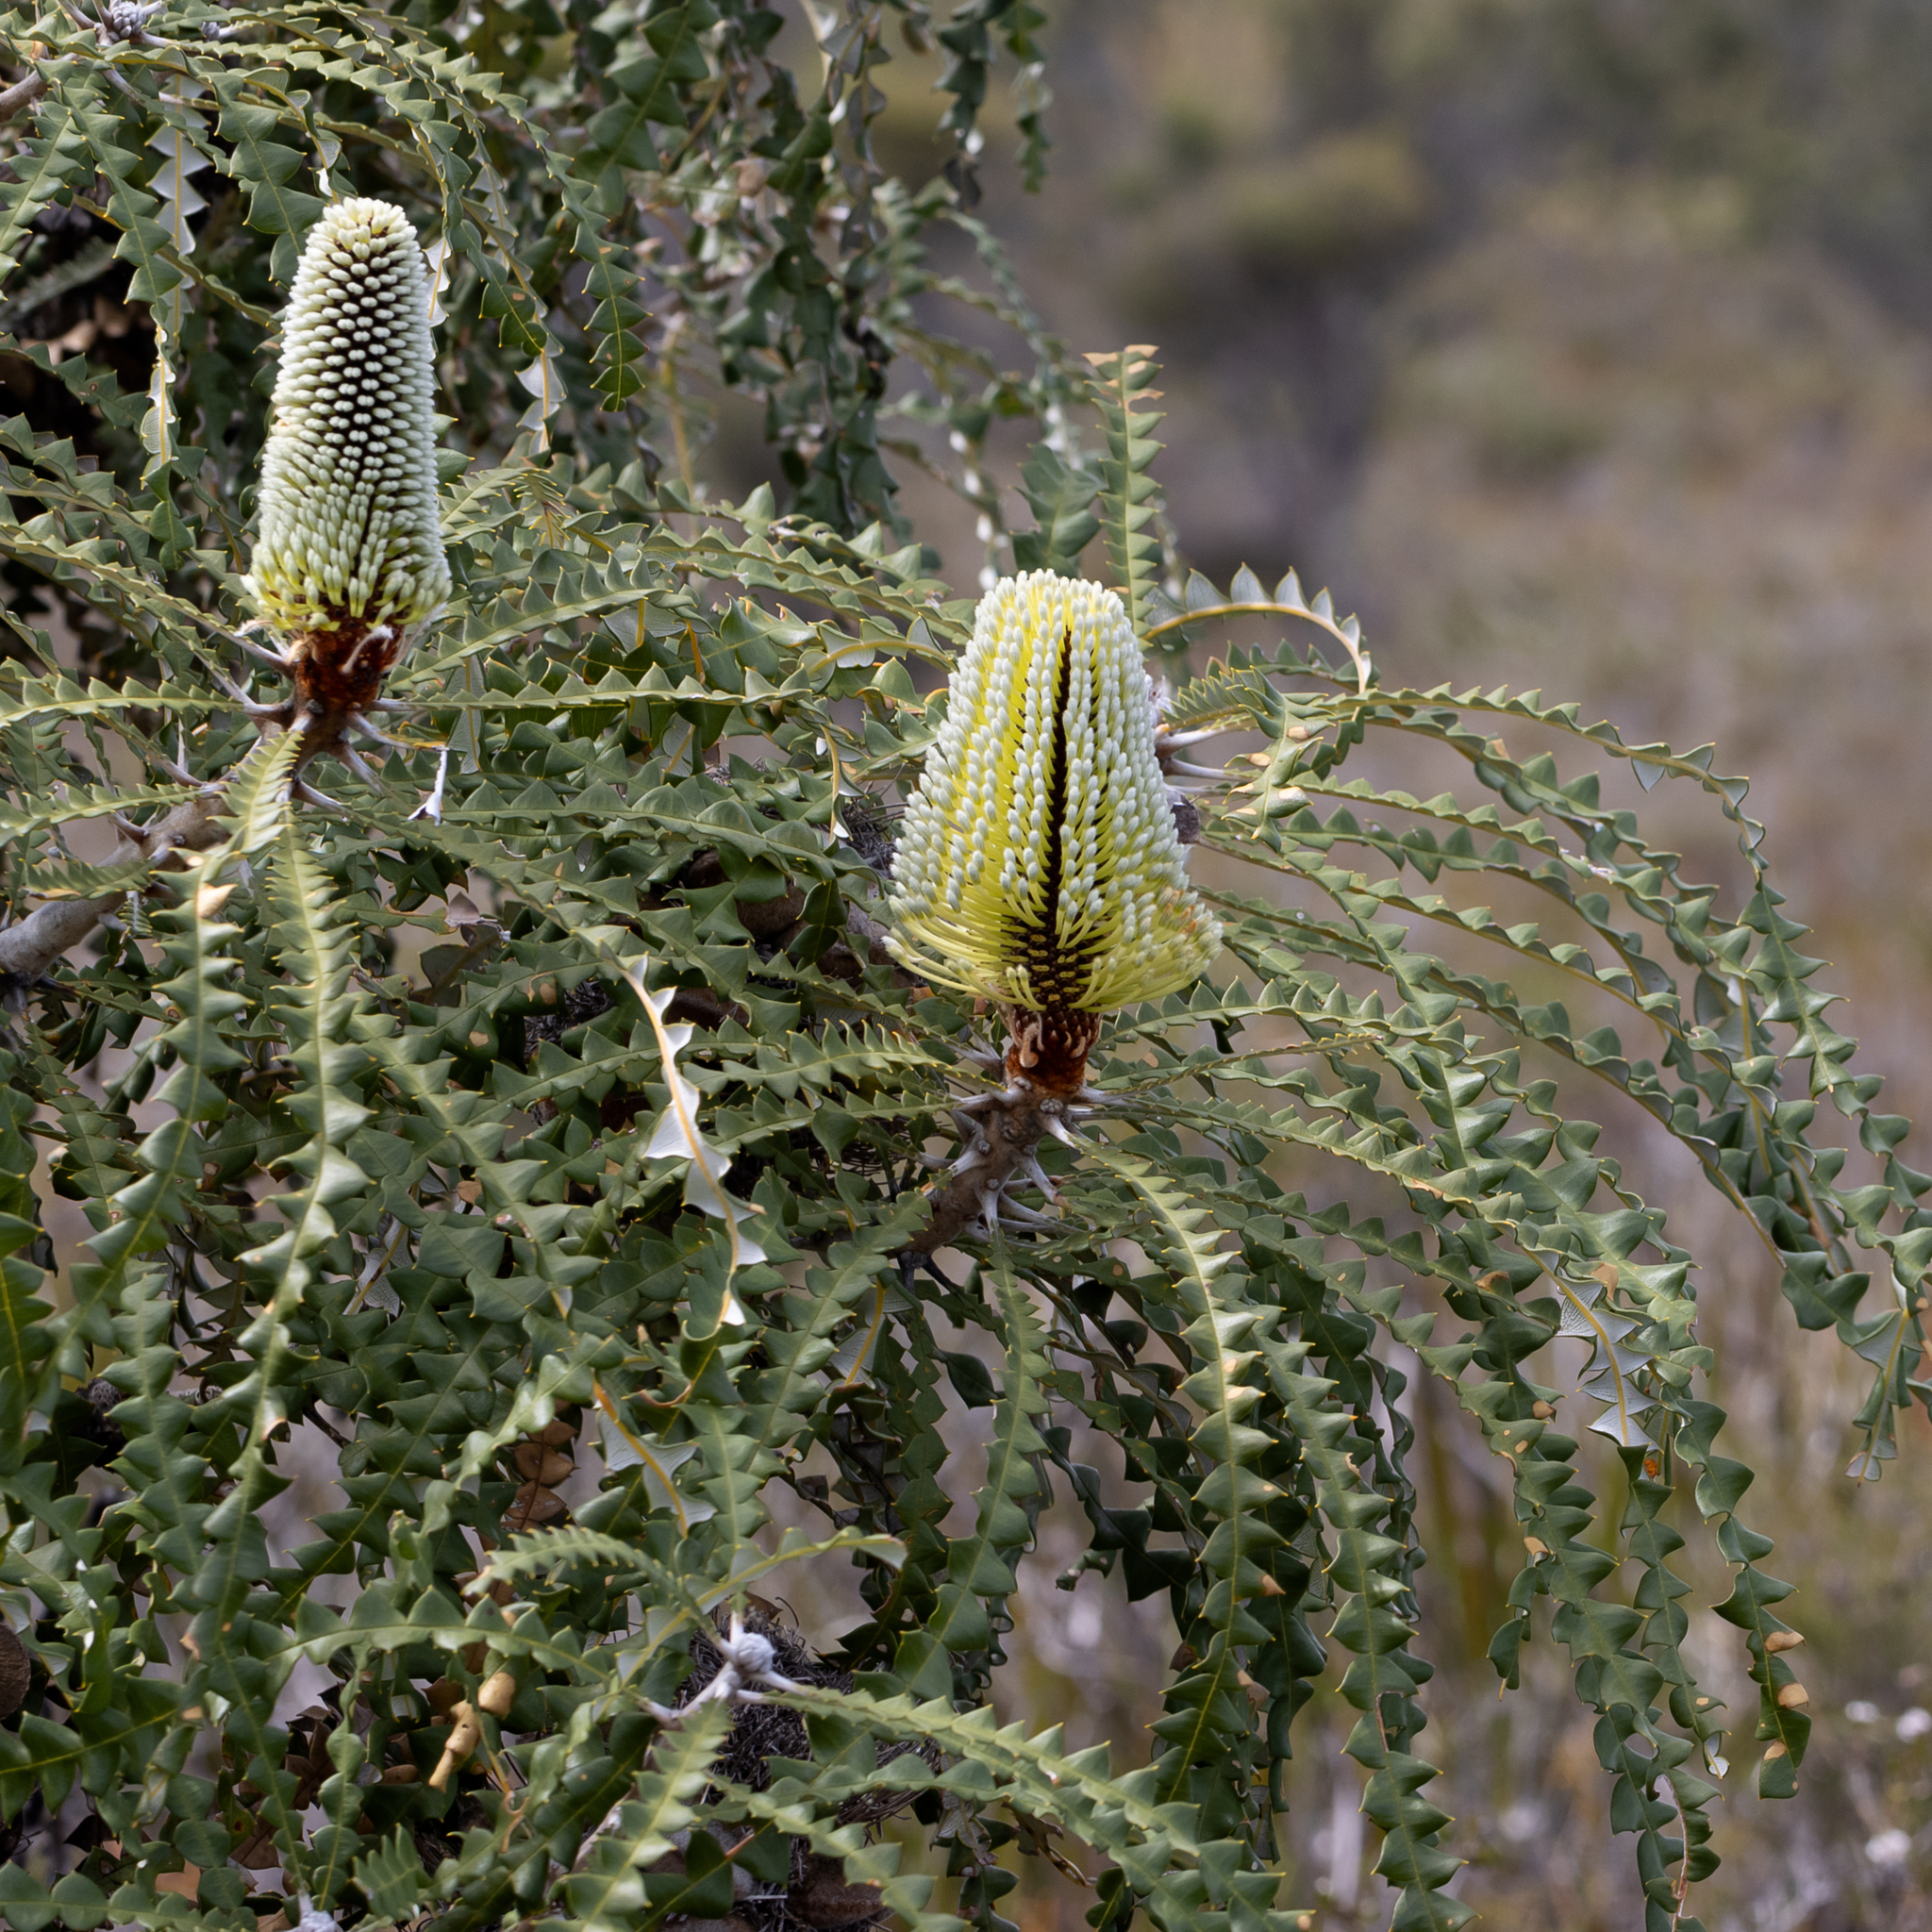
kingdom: Plantae
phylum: Tracheophyta
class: Magnoliopsida
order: Proteales
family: Proteaceae
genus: Banksia
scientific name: Banksia speciosa
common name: Showy banksia
